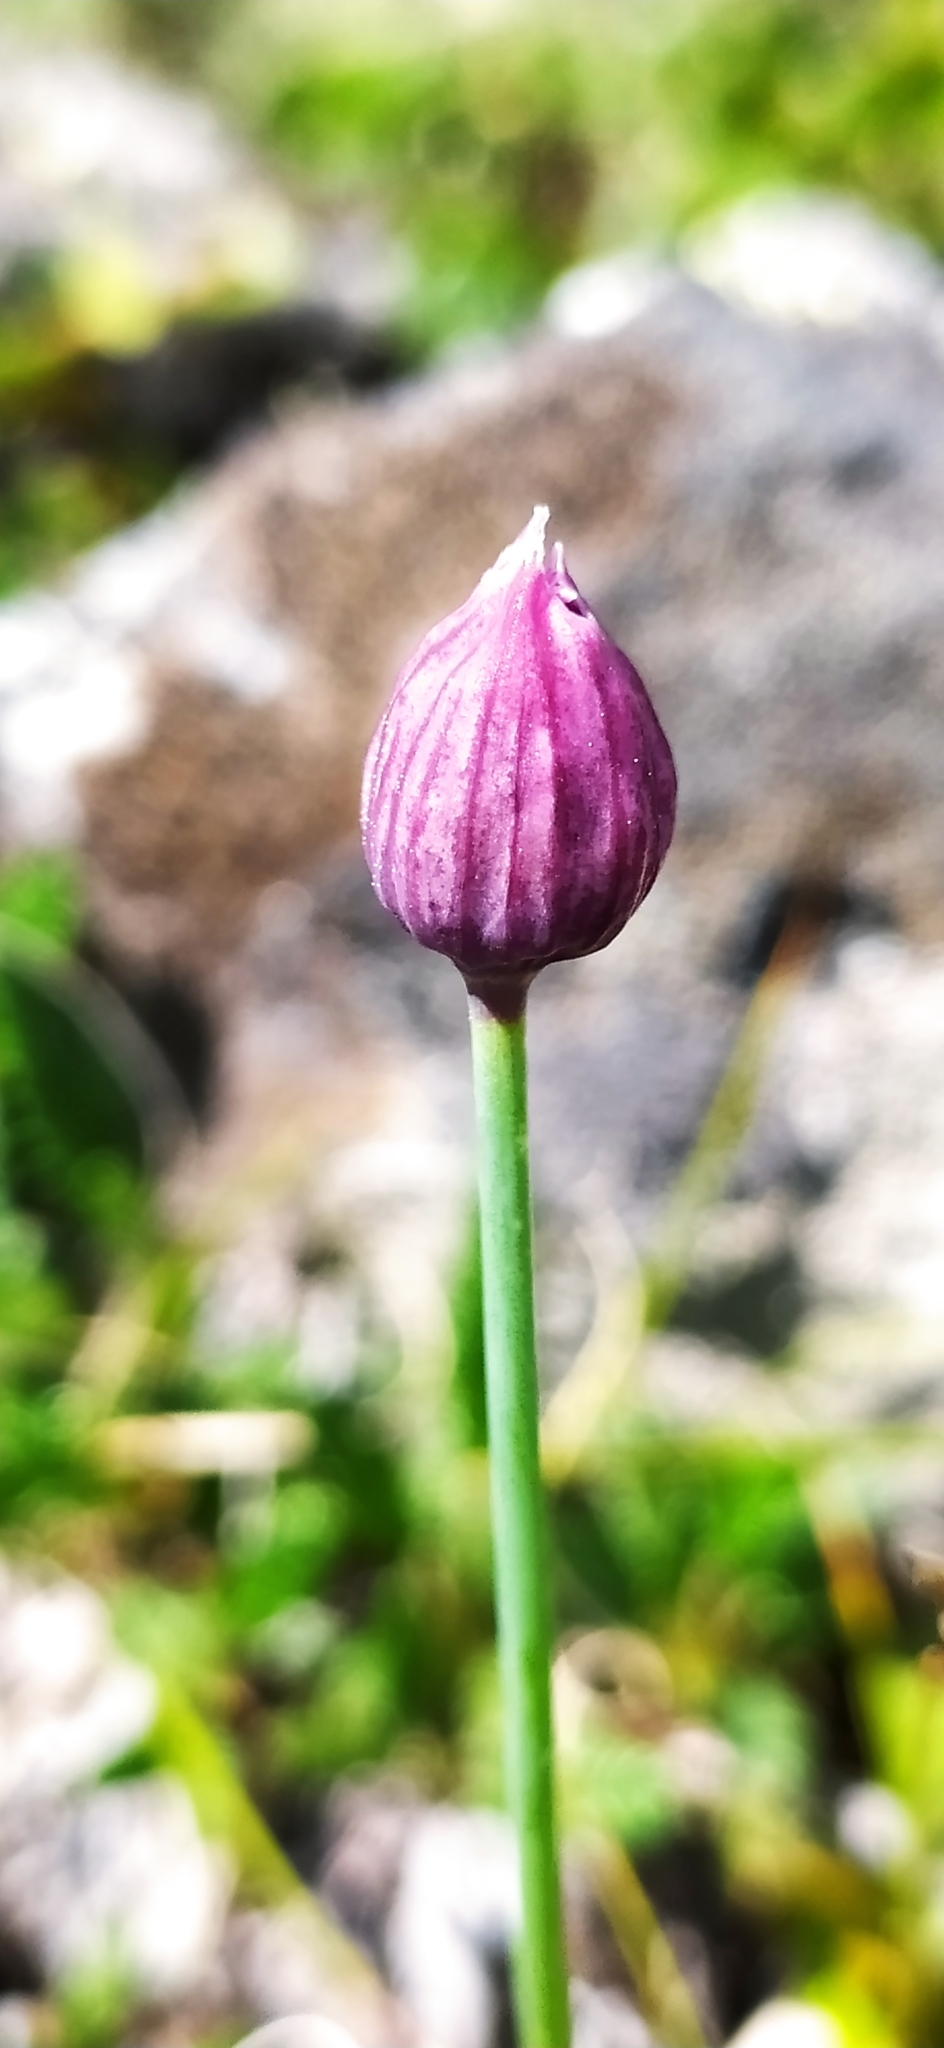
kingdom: Plantae
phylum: Tracheophyta
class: Liliopsida
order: Asparagales
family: Amaryllidaceae
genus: Allium
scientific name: Allium schoenoprasum
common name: Chives
